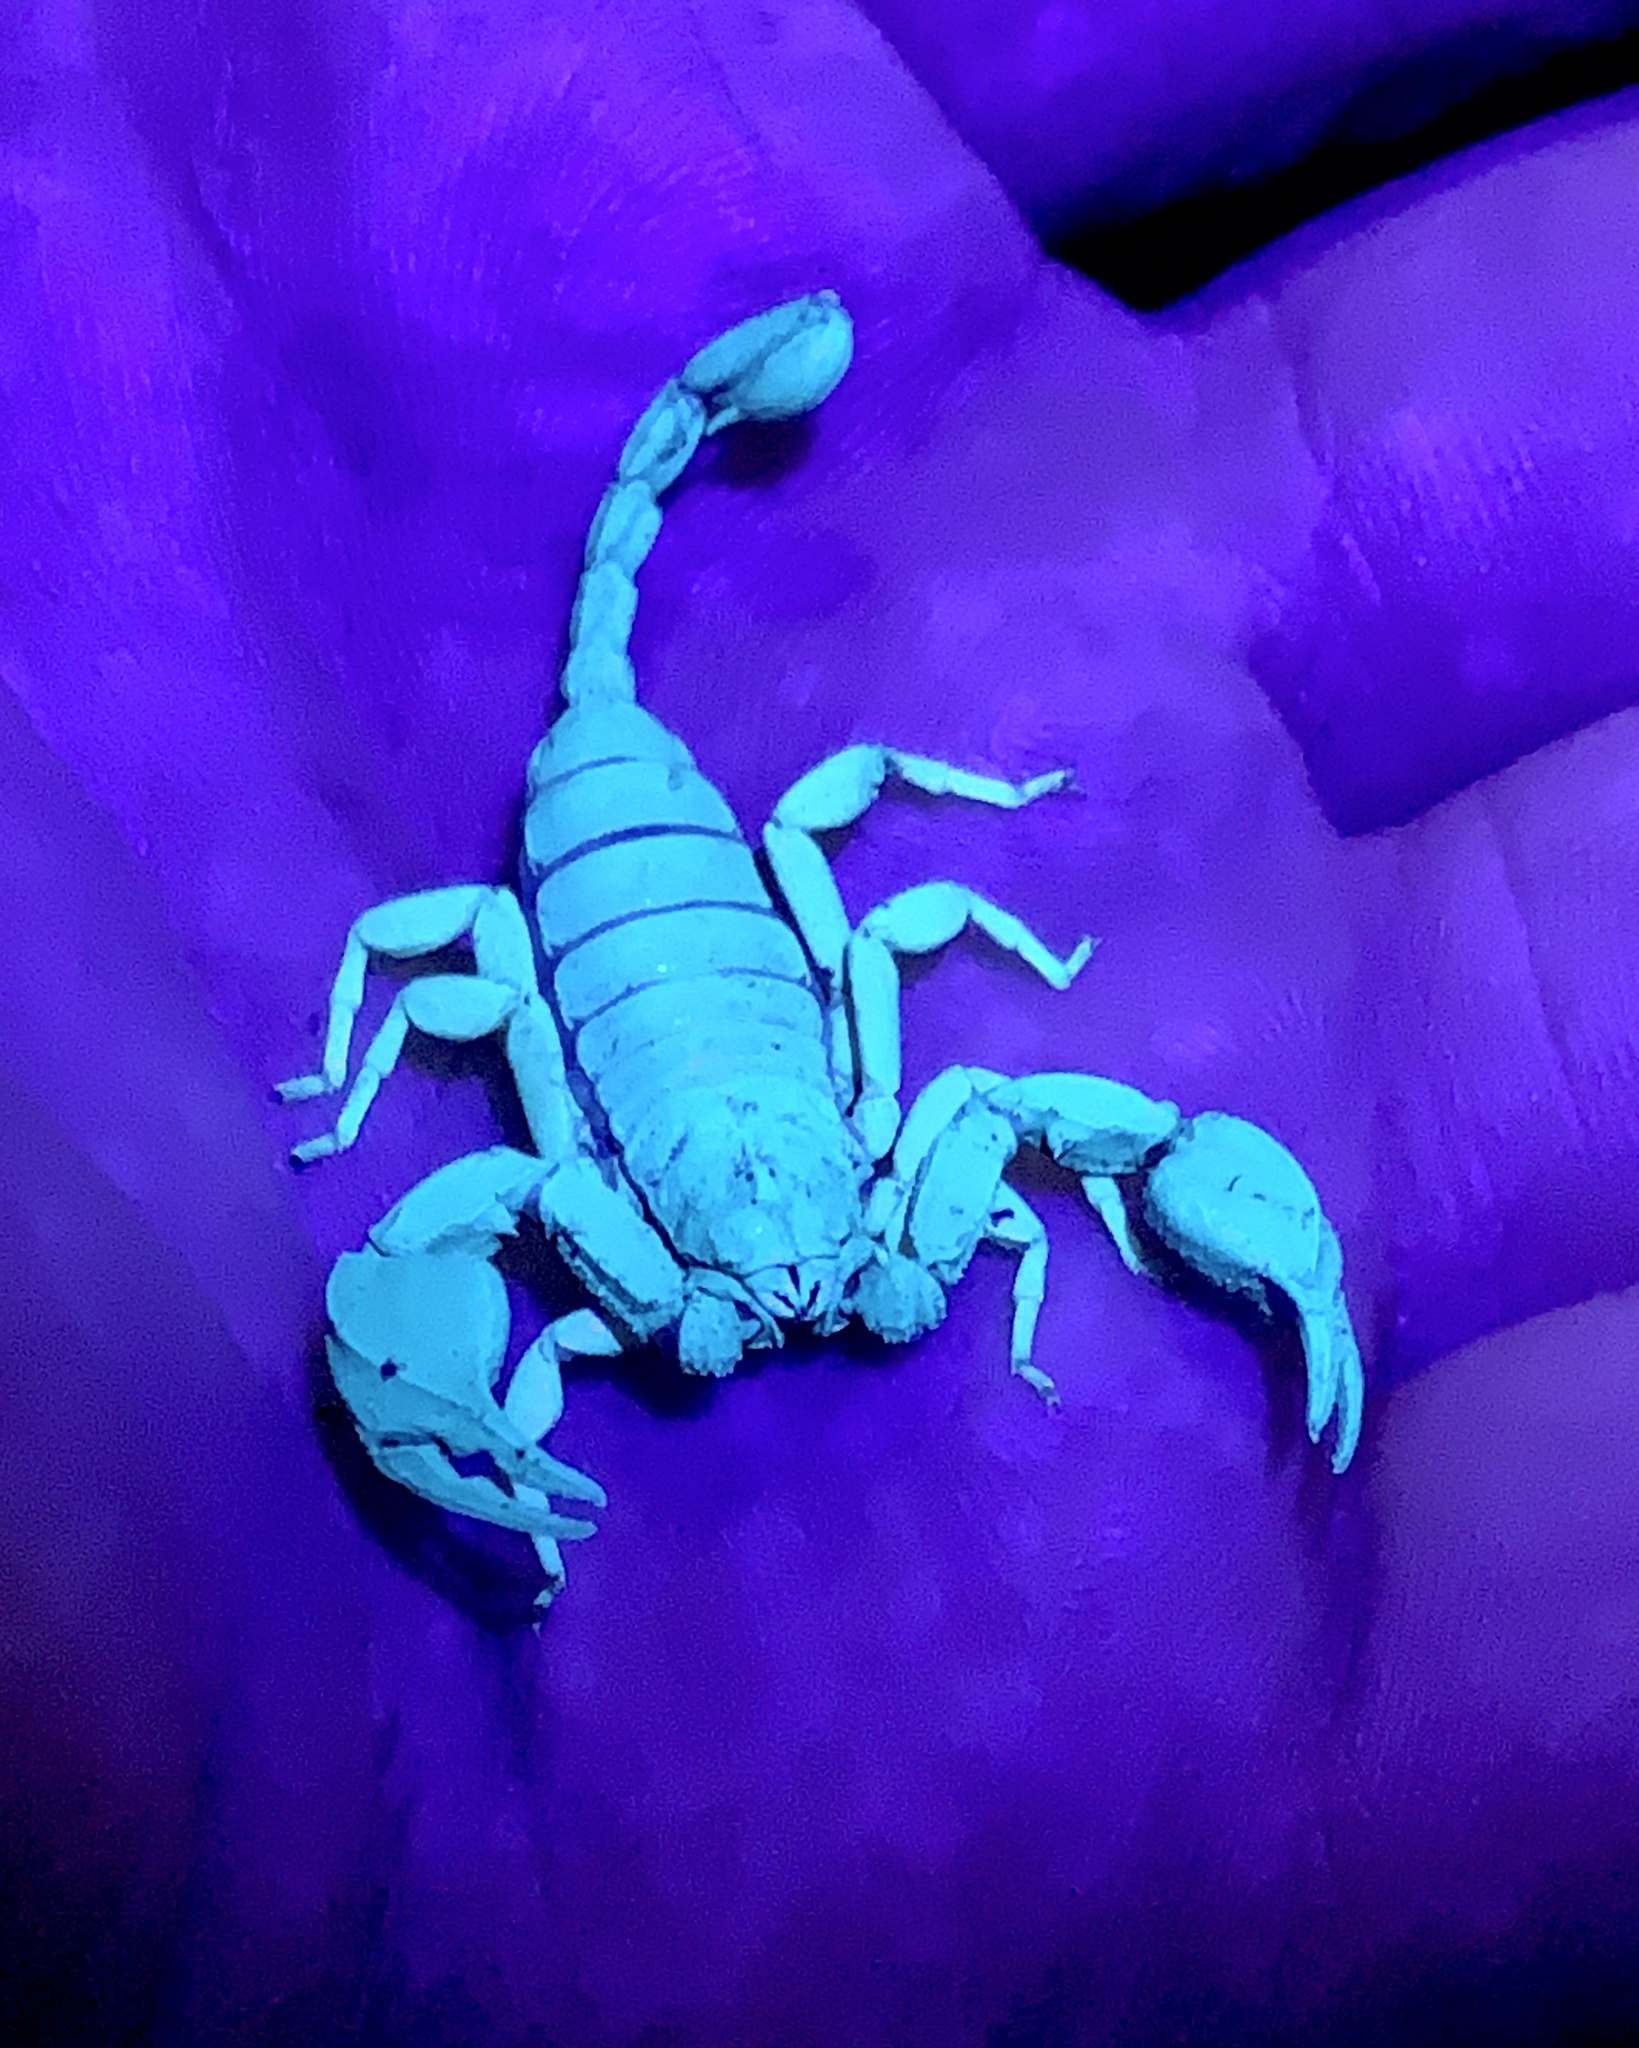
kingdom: Animalia
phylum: Arthropoda
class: Arachnida
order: Scorpiones
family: Euscorpiidae
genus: Euscorpius
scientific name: Euscorpius flavicaudis
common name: European yellow-tailed scorpion
